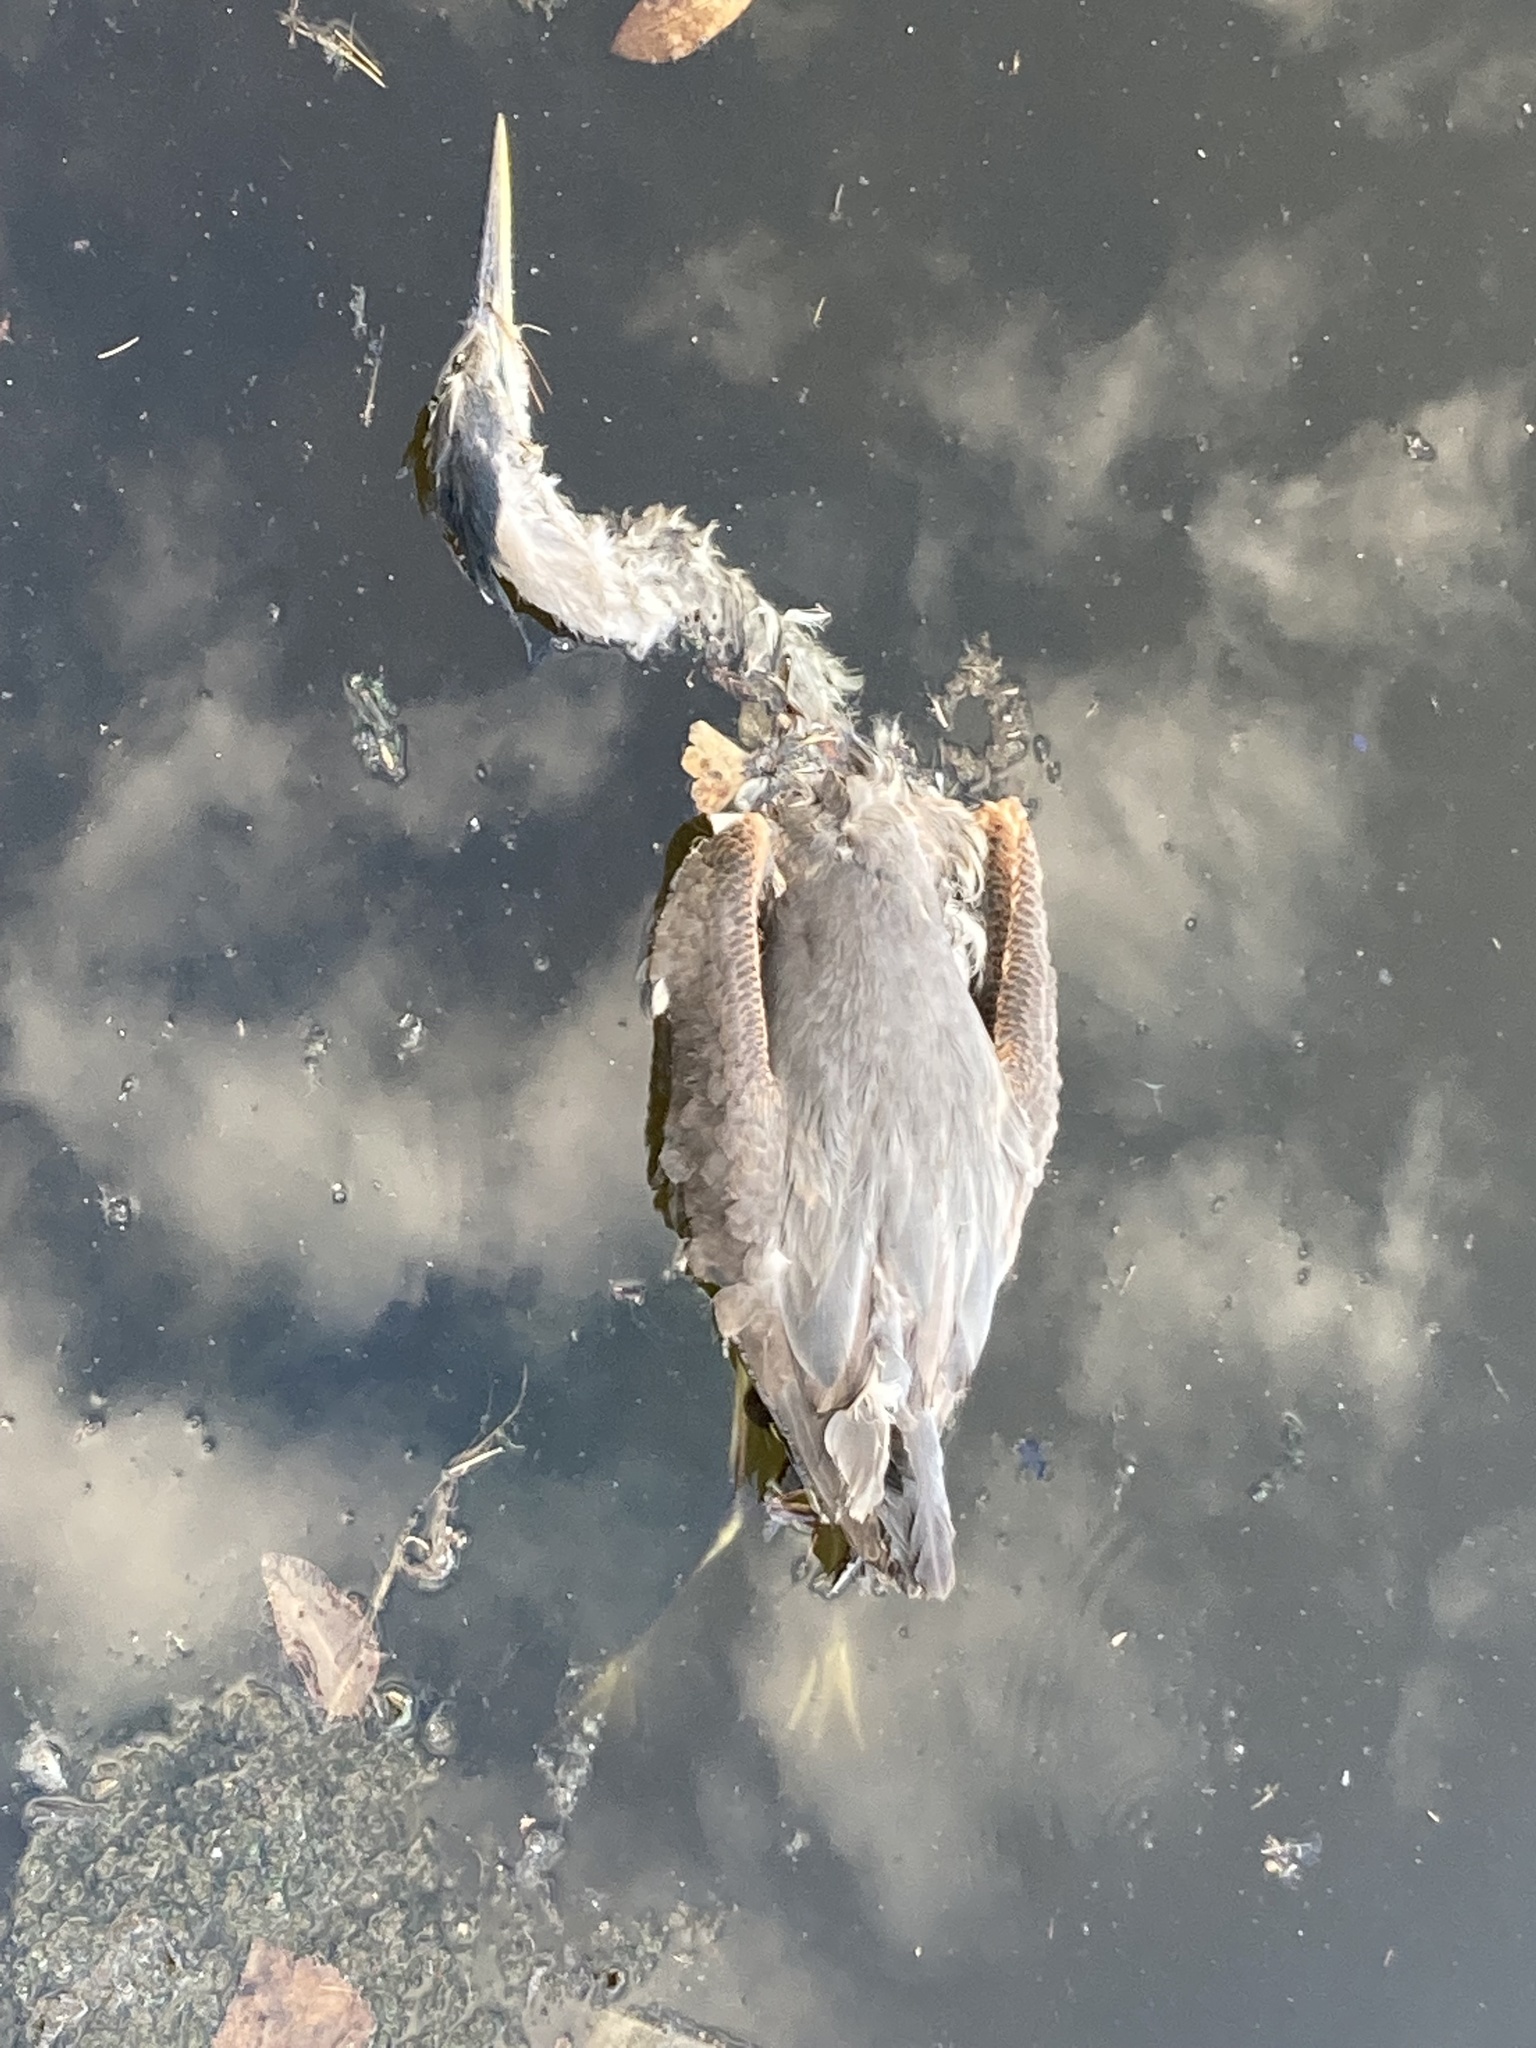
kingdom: Animalia
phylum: Chordata
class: Aves
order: Pelecaniformes
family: Ardeidae
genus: Ardea
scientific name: Ardea herodias
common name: Great blue heron
